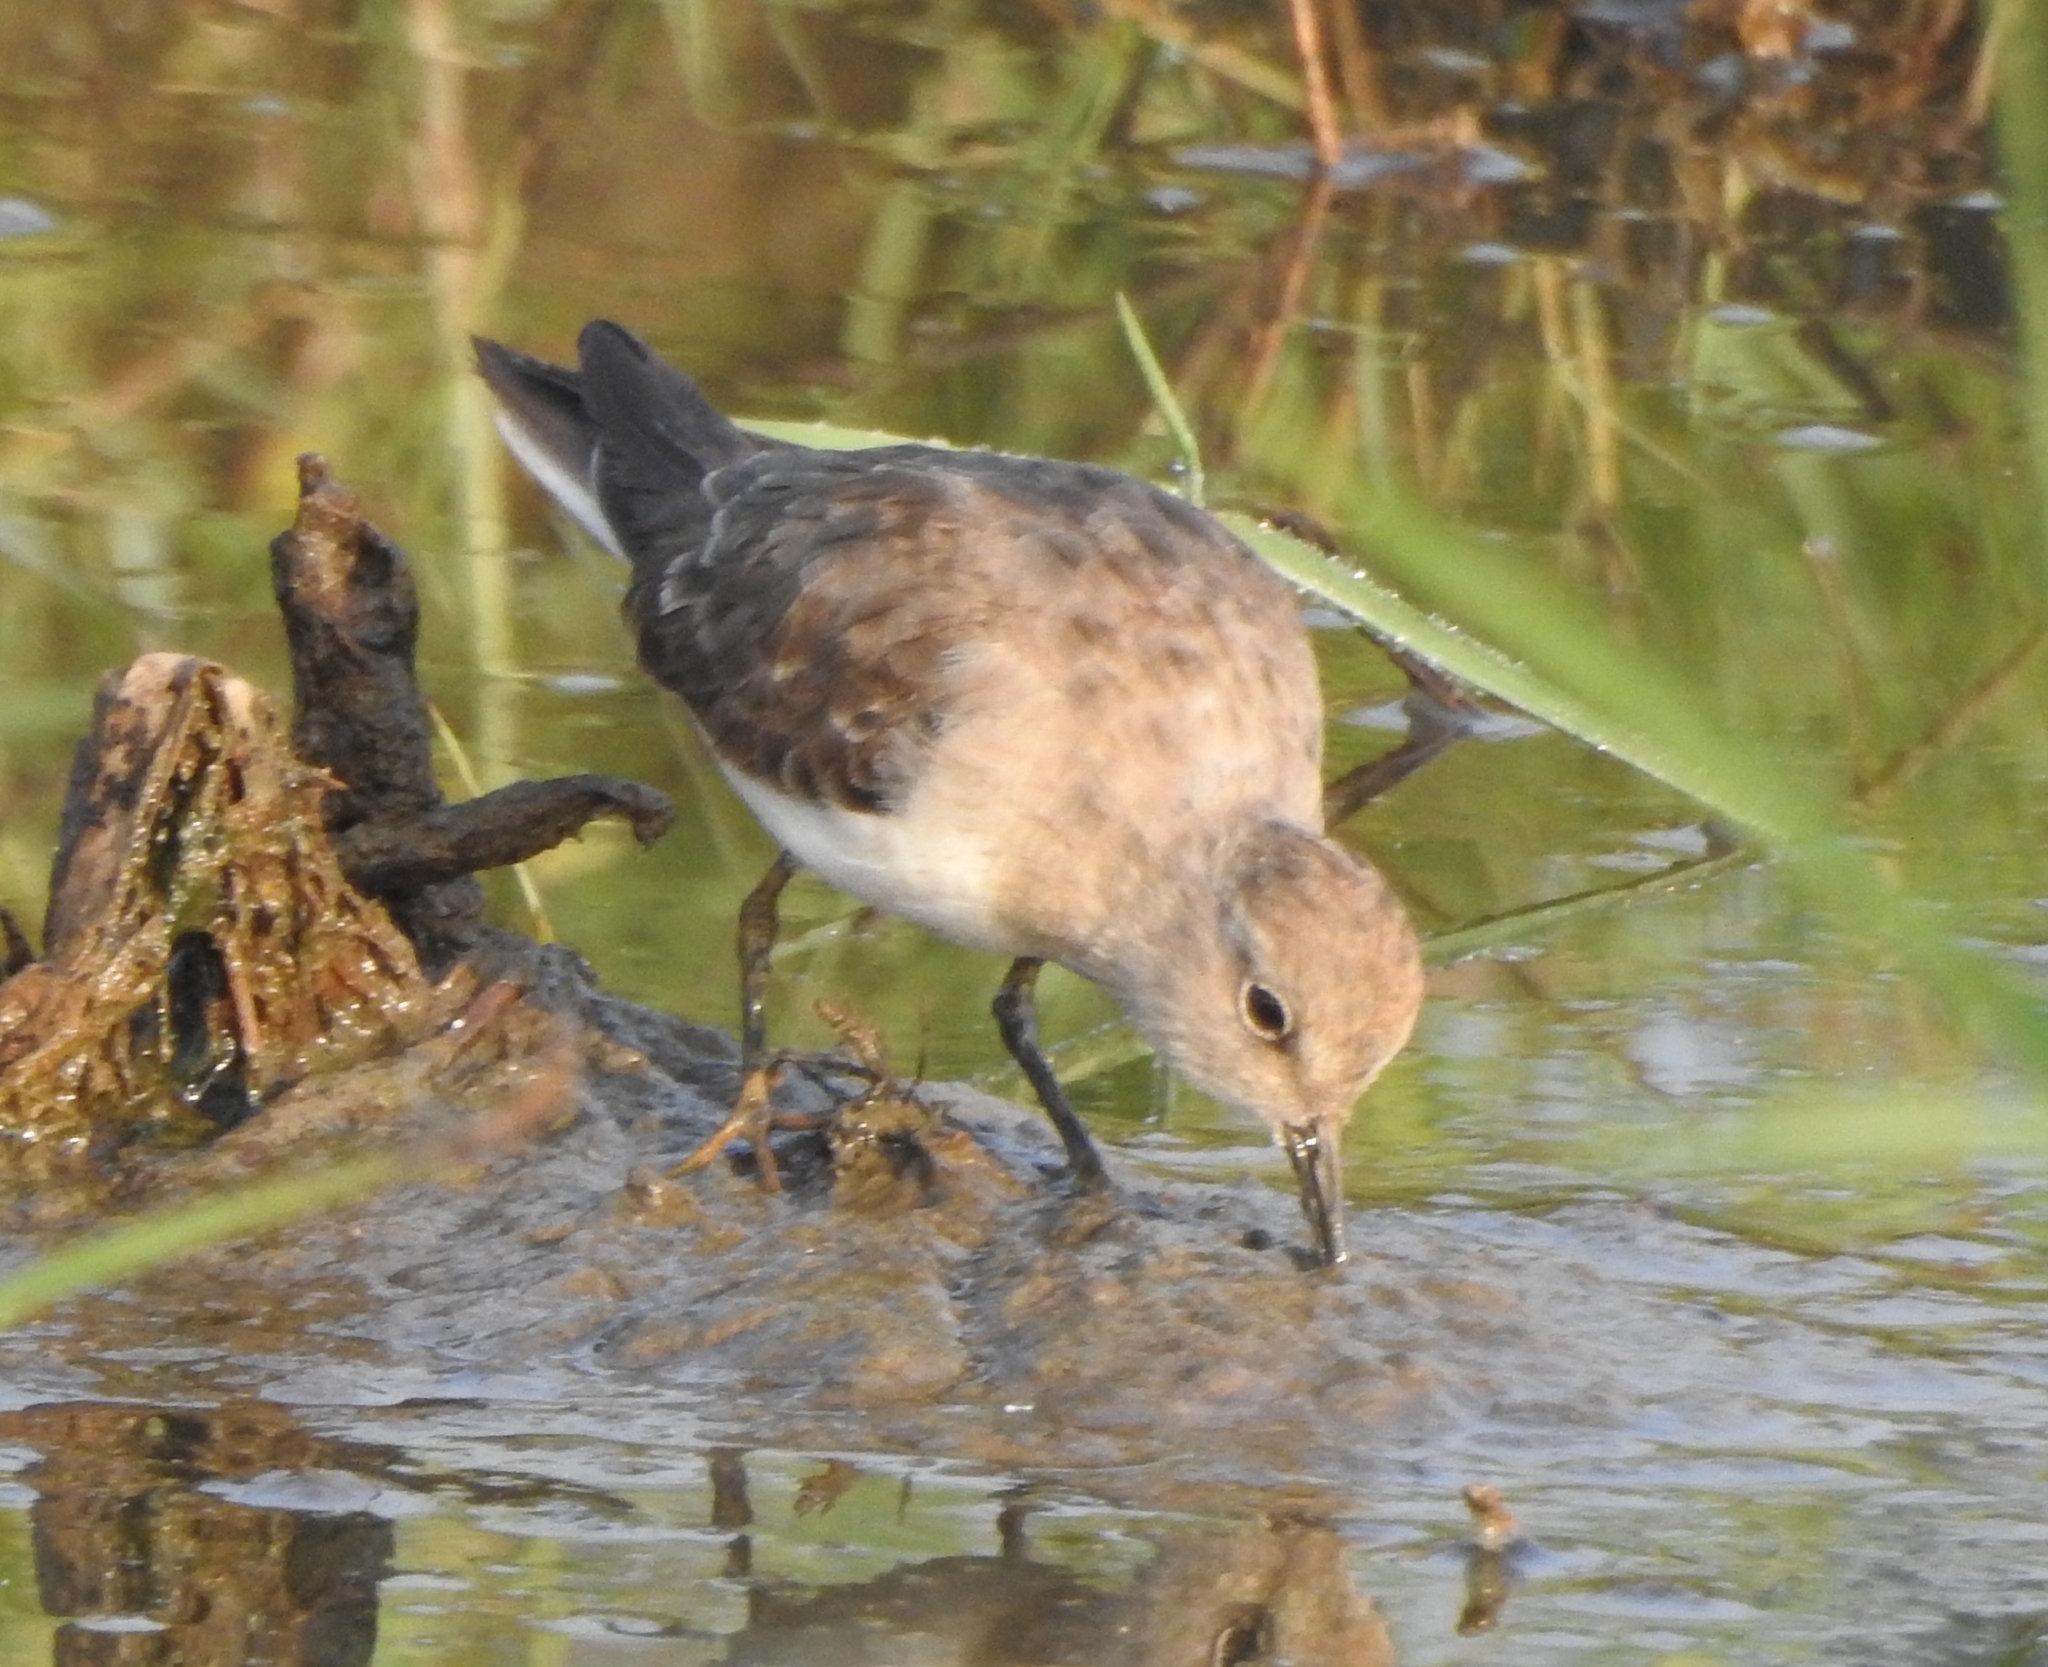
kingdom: Animalia
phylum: Chordata
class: Aves
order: Charadriiformes
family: Scolopacidae
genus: Calidris
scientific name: Calidris temminckii
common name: Temminck's stint
